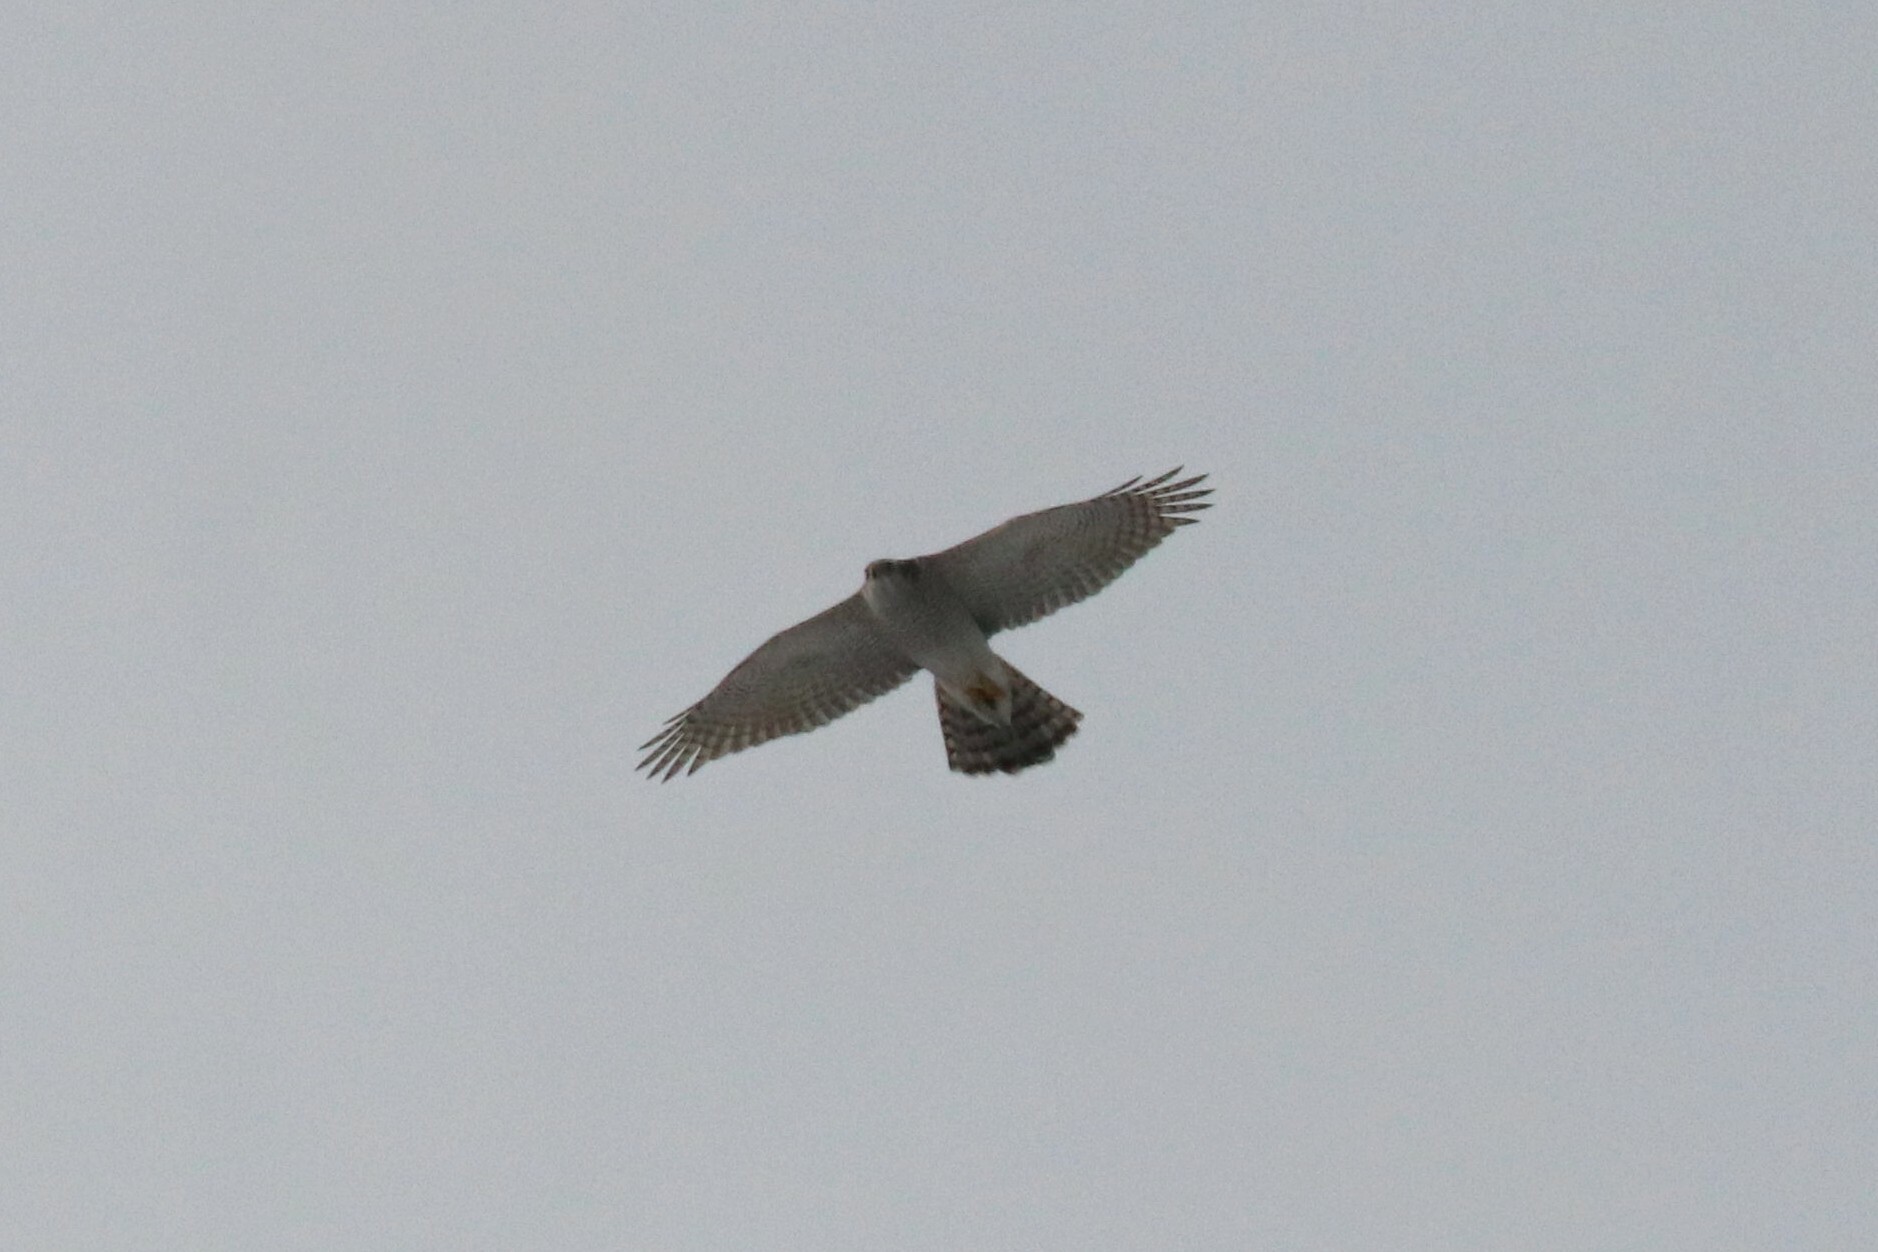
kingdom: Animalia
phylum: Chordata
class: Aves
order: Accipitriformes
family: Accipitridae
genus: Accipiter
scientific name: Accipiter gentilis
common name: Northern goshawk
